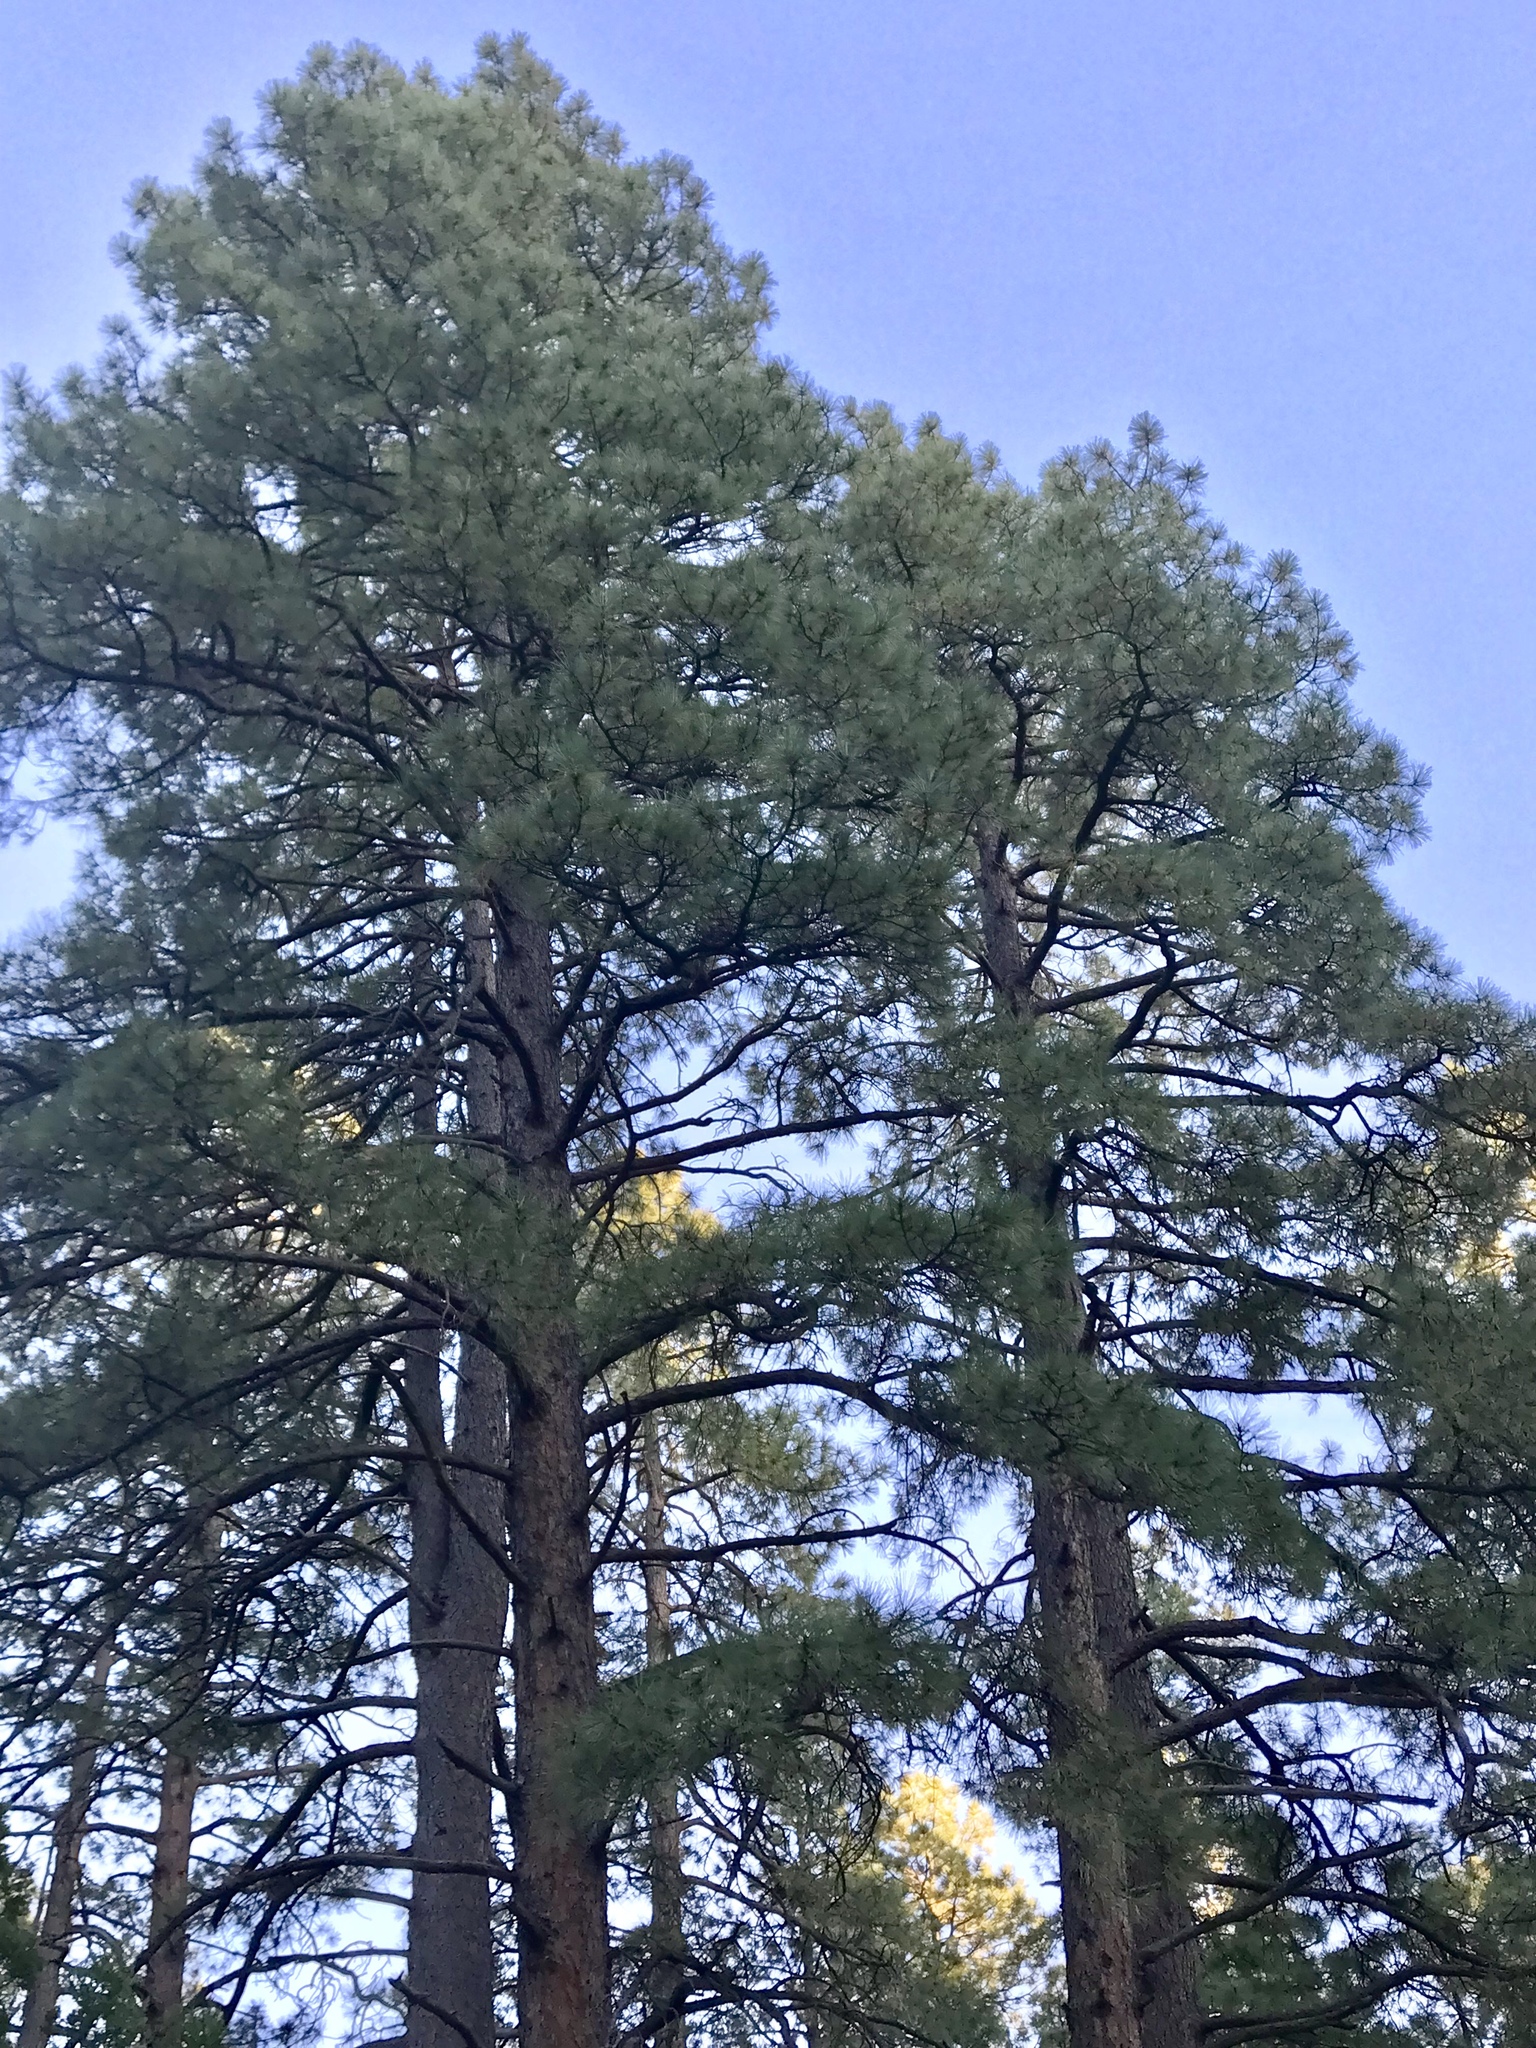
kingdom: Plantae
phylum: Tracheophyta
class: Pinopsida
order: Pinales
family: Pinaceae
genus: Pinus
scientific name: Pinus ponderosa
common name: Western yellow-pine
